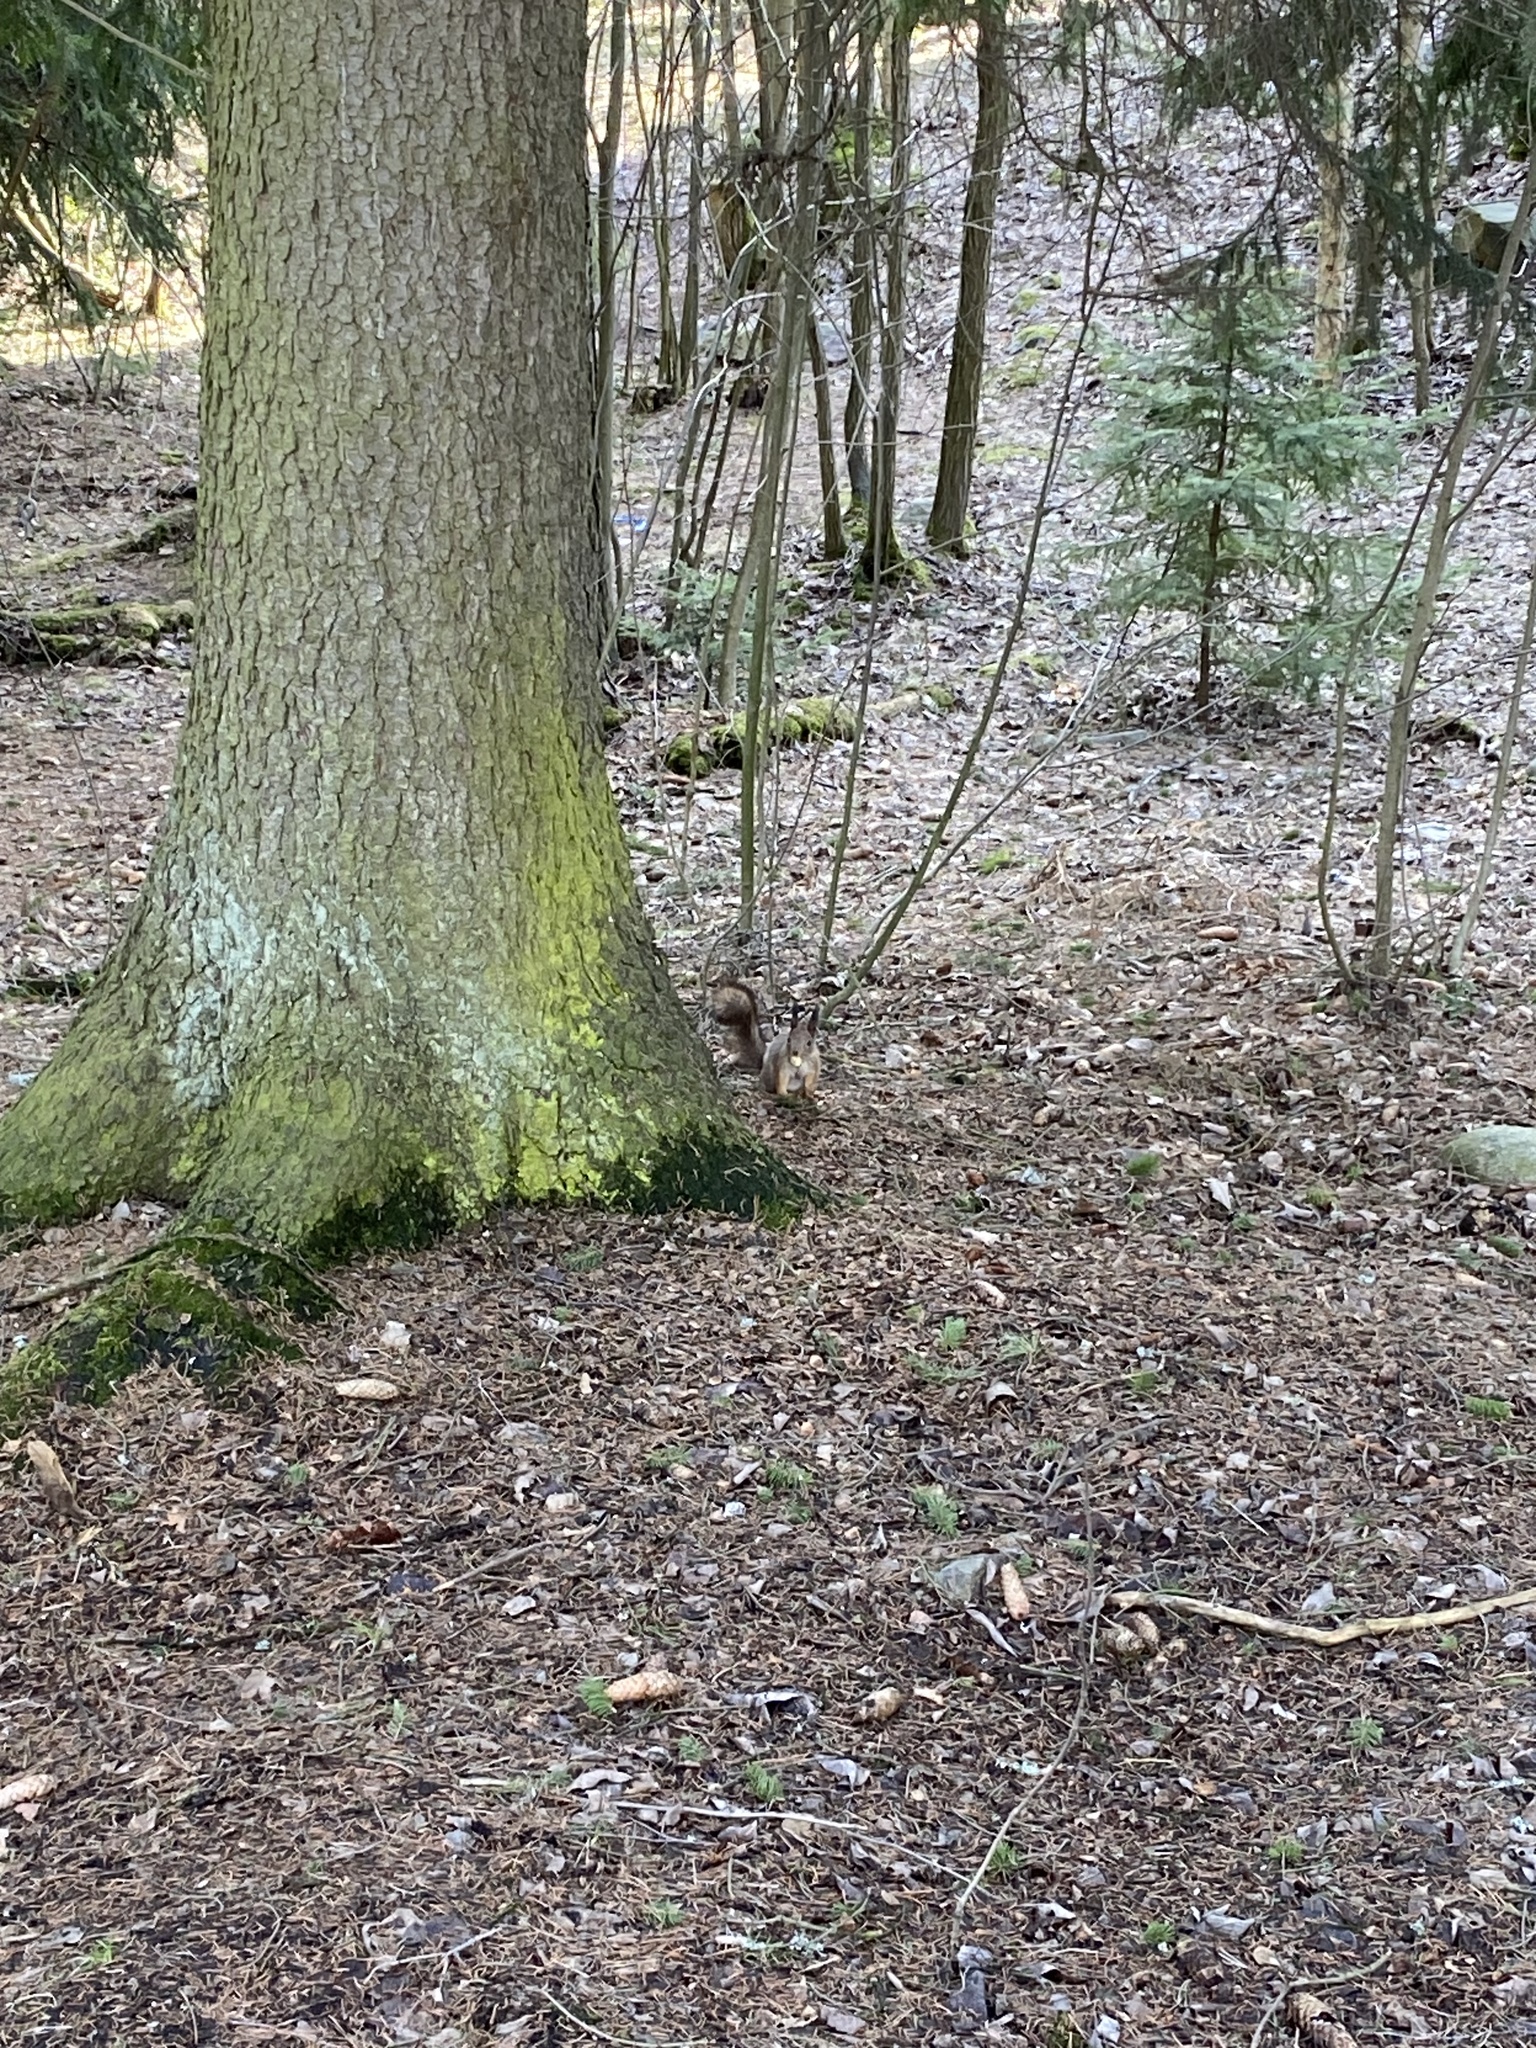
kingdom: Animalia
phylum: Chordata
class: Mammalia
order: Rodentia
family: Sciuridae
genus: Sciurus
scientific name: Sciurus vulgaris
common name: Eurasian red squirrel
